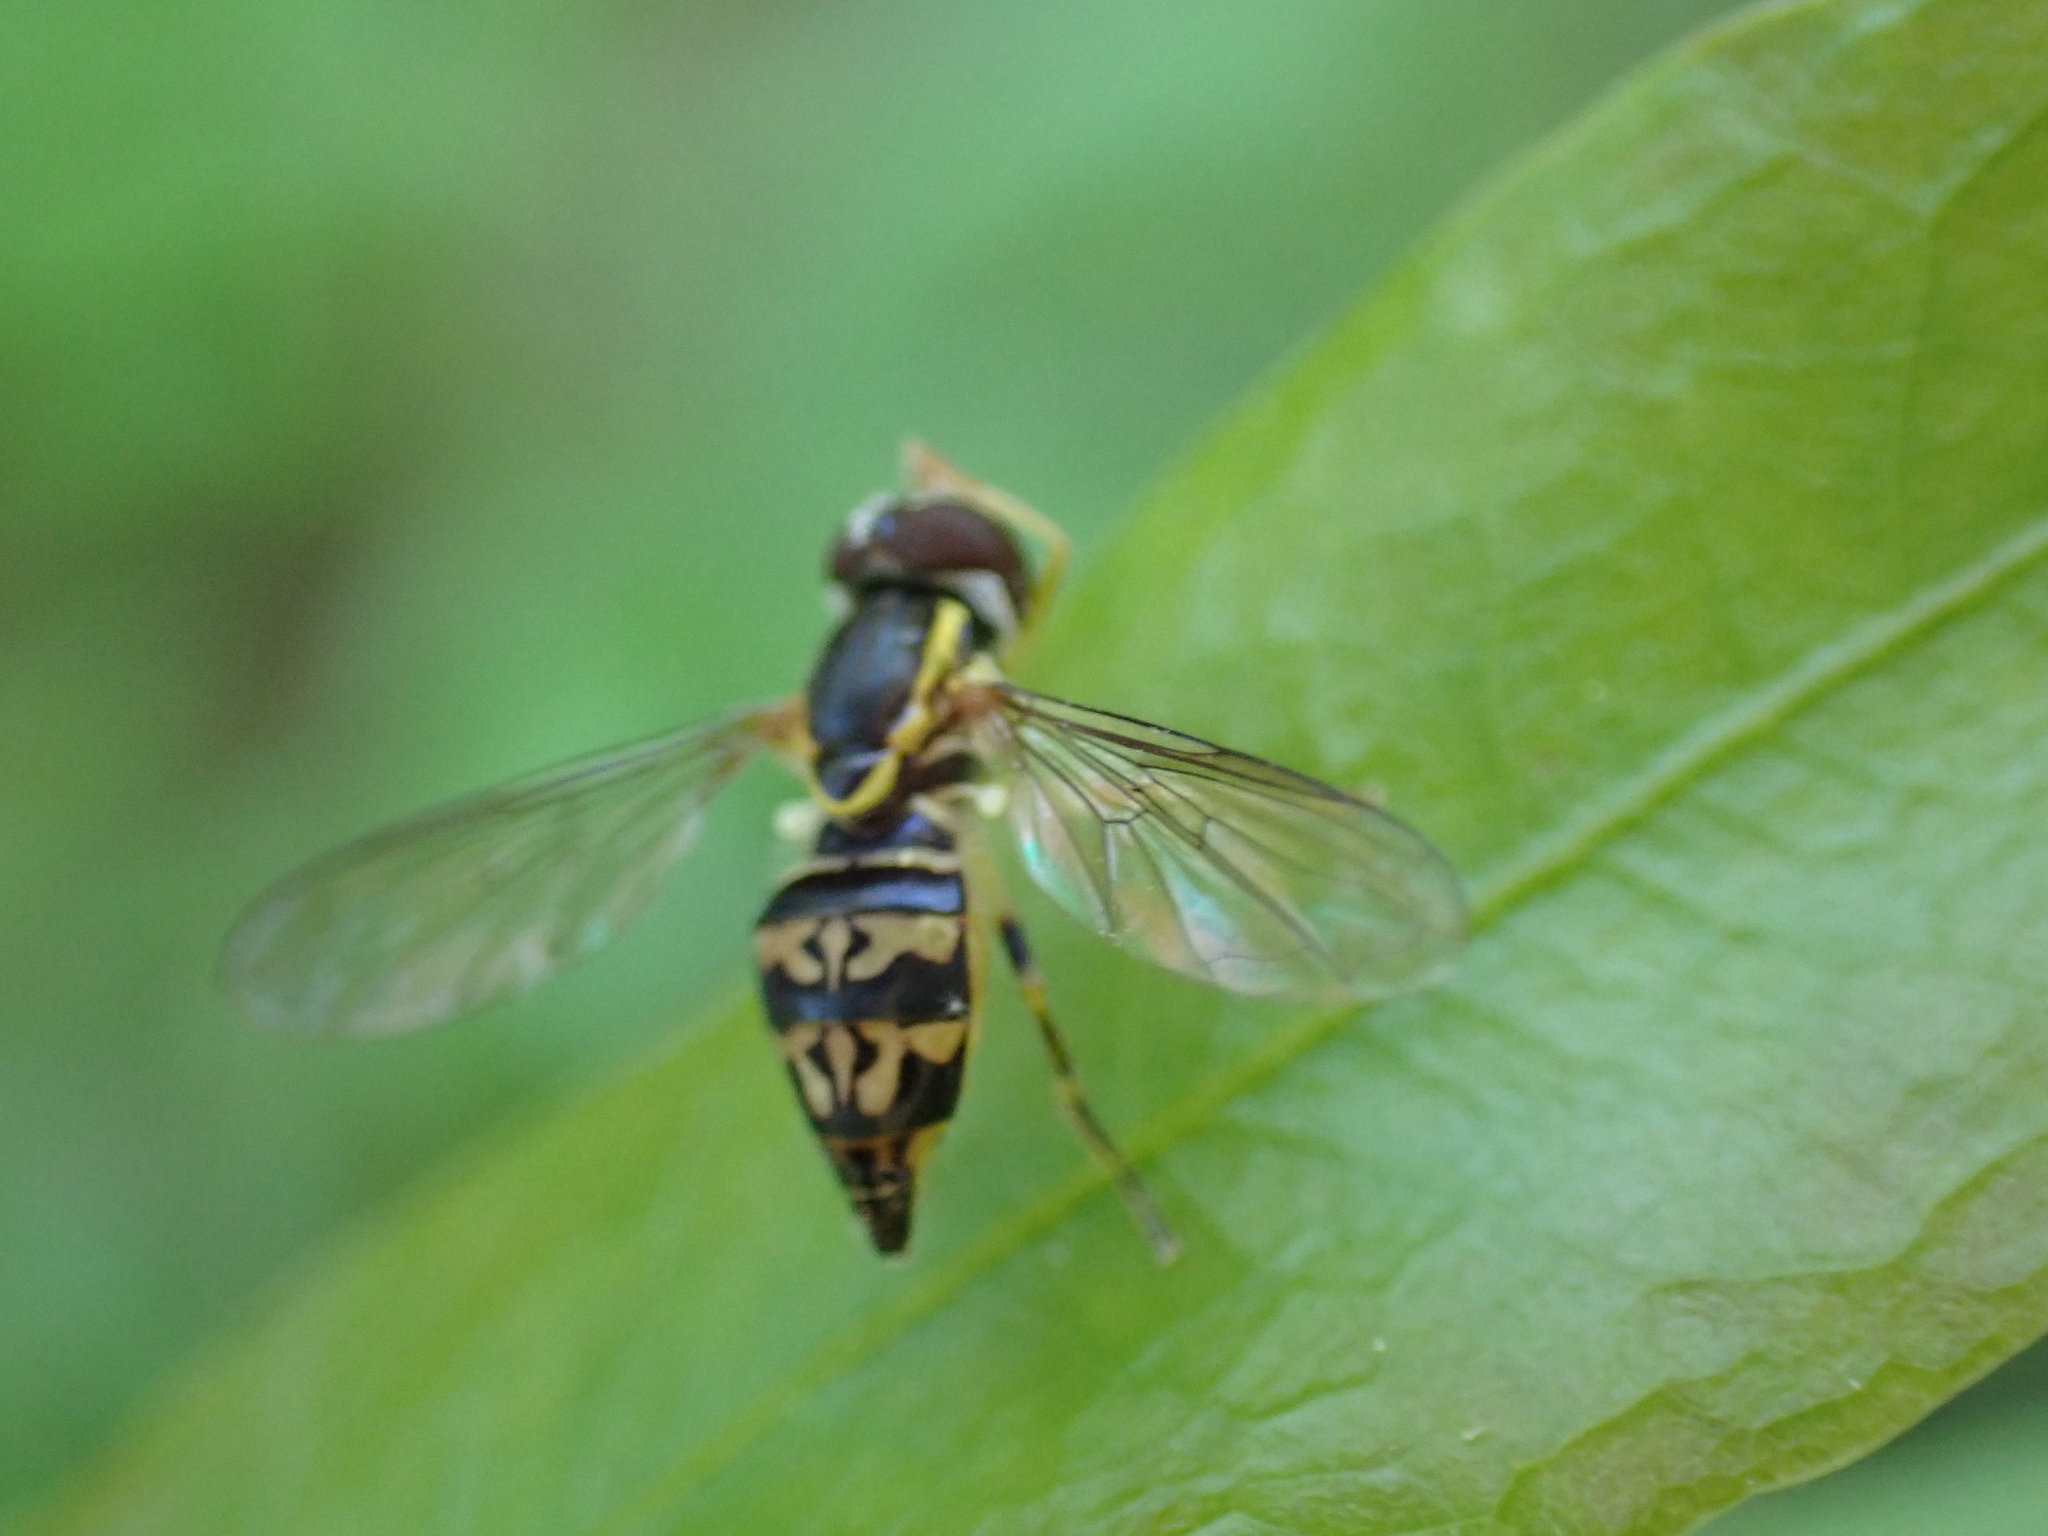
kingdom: Animalia
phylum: Arthropoda
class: Insecta
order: Diptera
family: Syrphidae
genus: Toxomerus
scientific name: Toxomerus geminatus
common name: Eastern calligrapher
